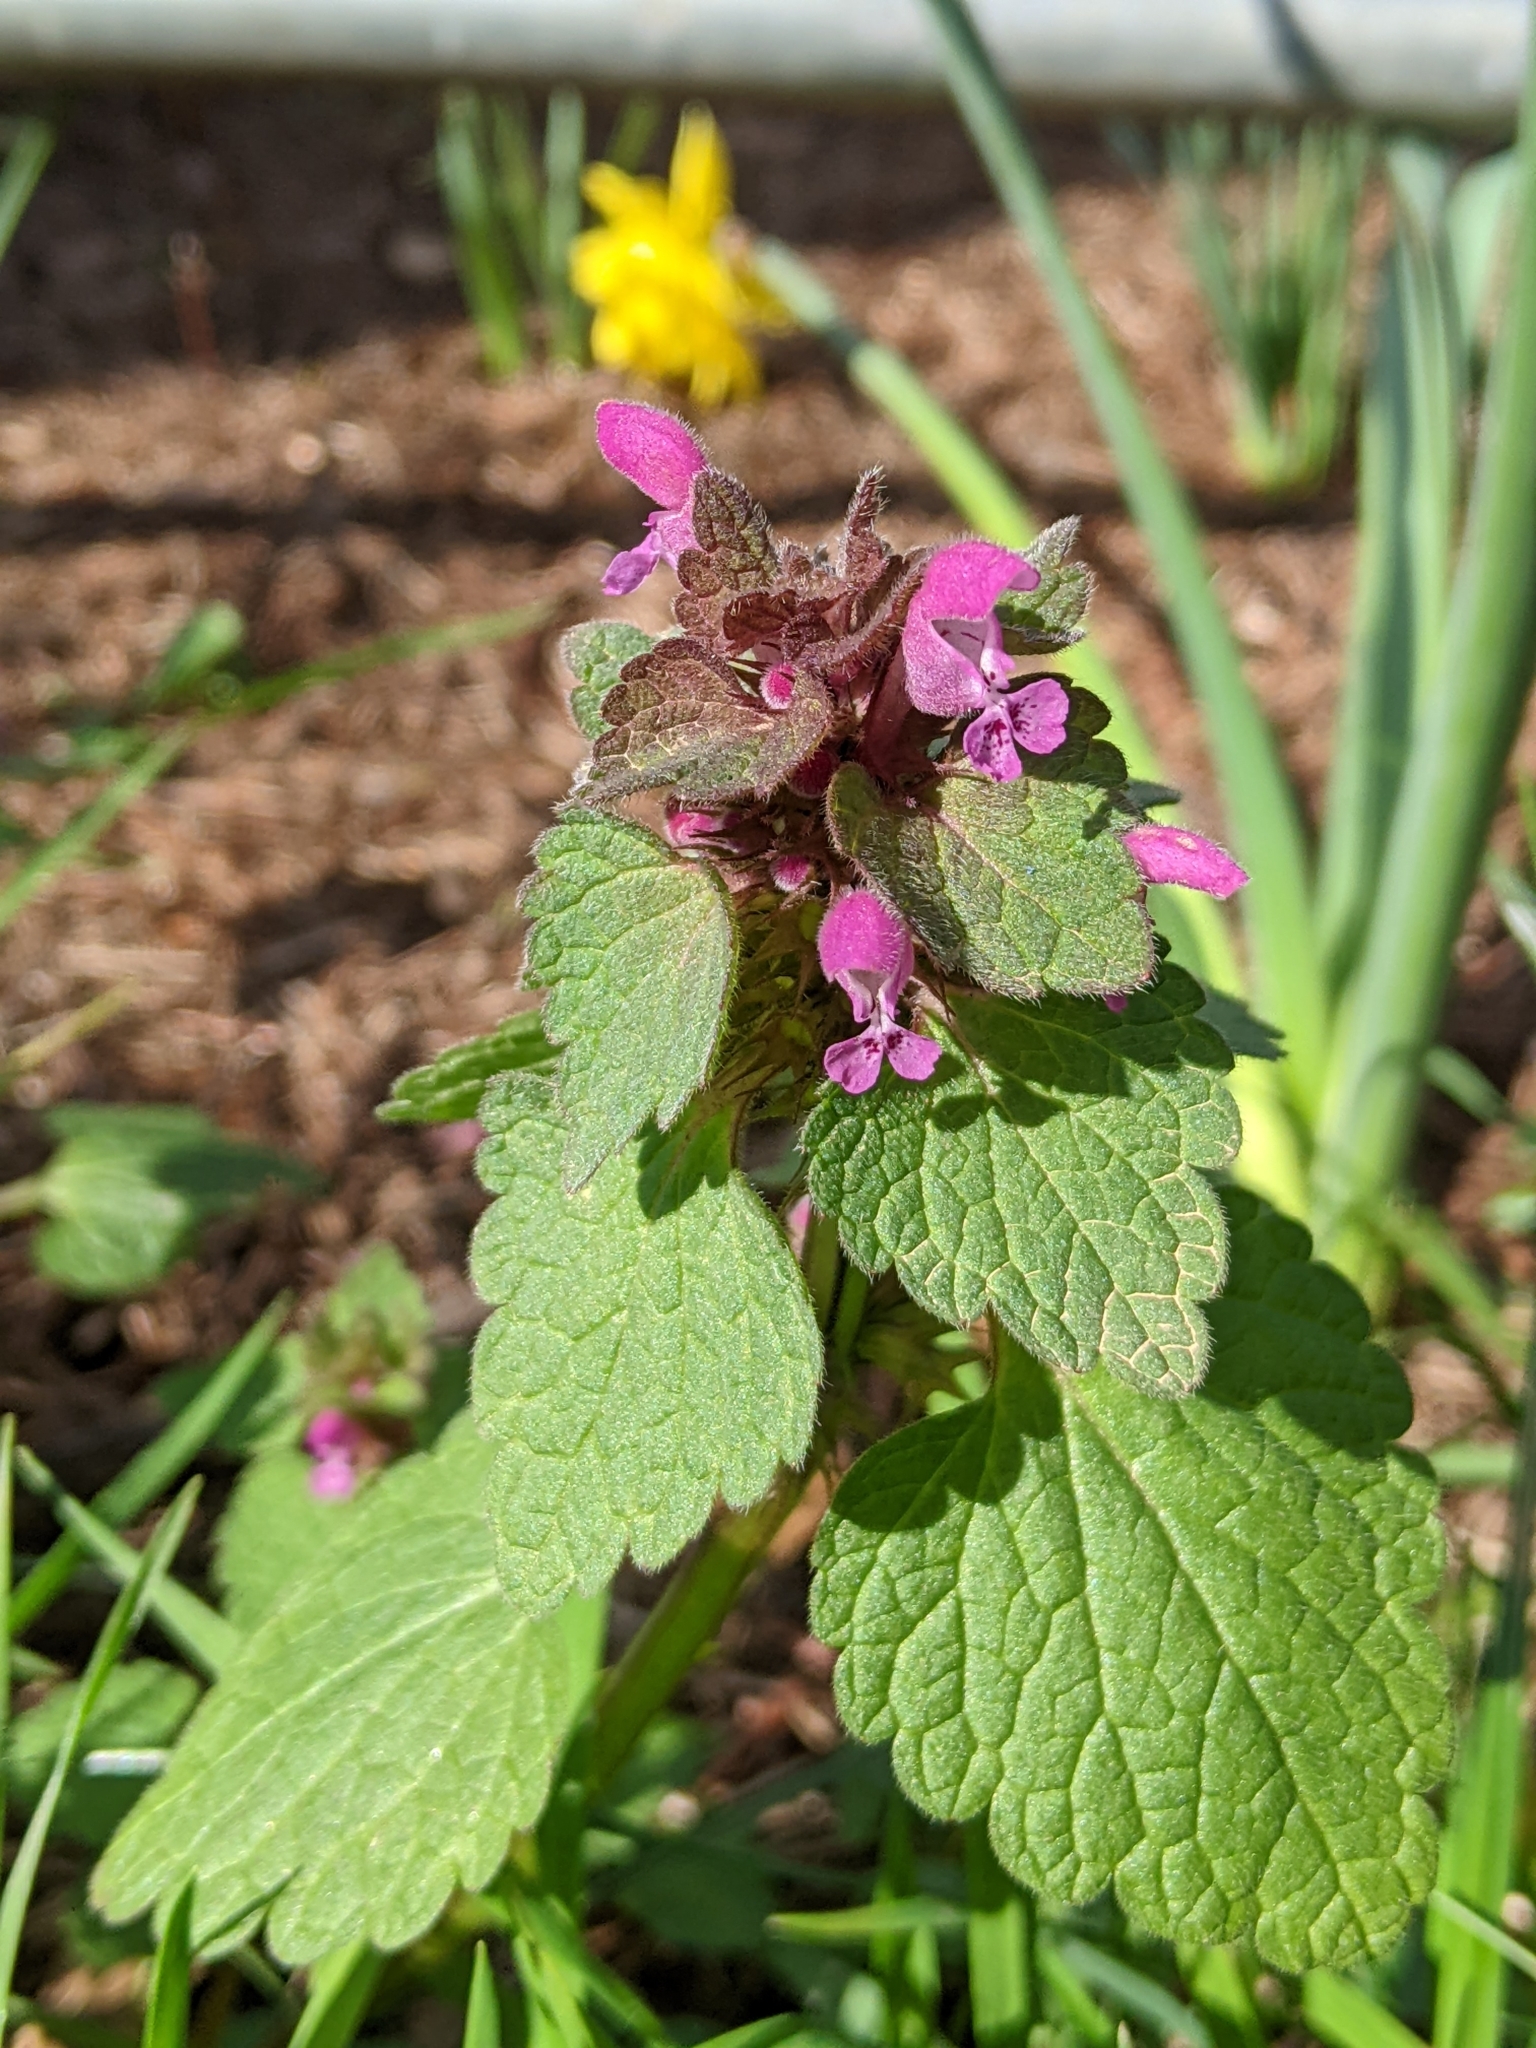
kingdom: Plantae
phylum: Tracheophyta
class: Magnoliopsida
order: Lamiales
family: Lamiaceae
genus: Lamium
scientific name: Lamium purpureum
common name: Red dead-nettle
